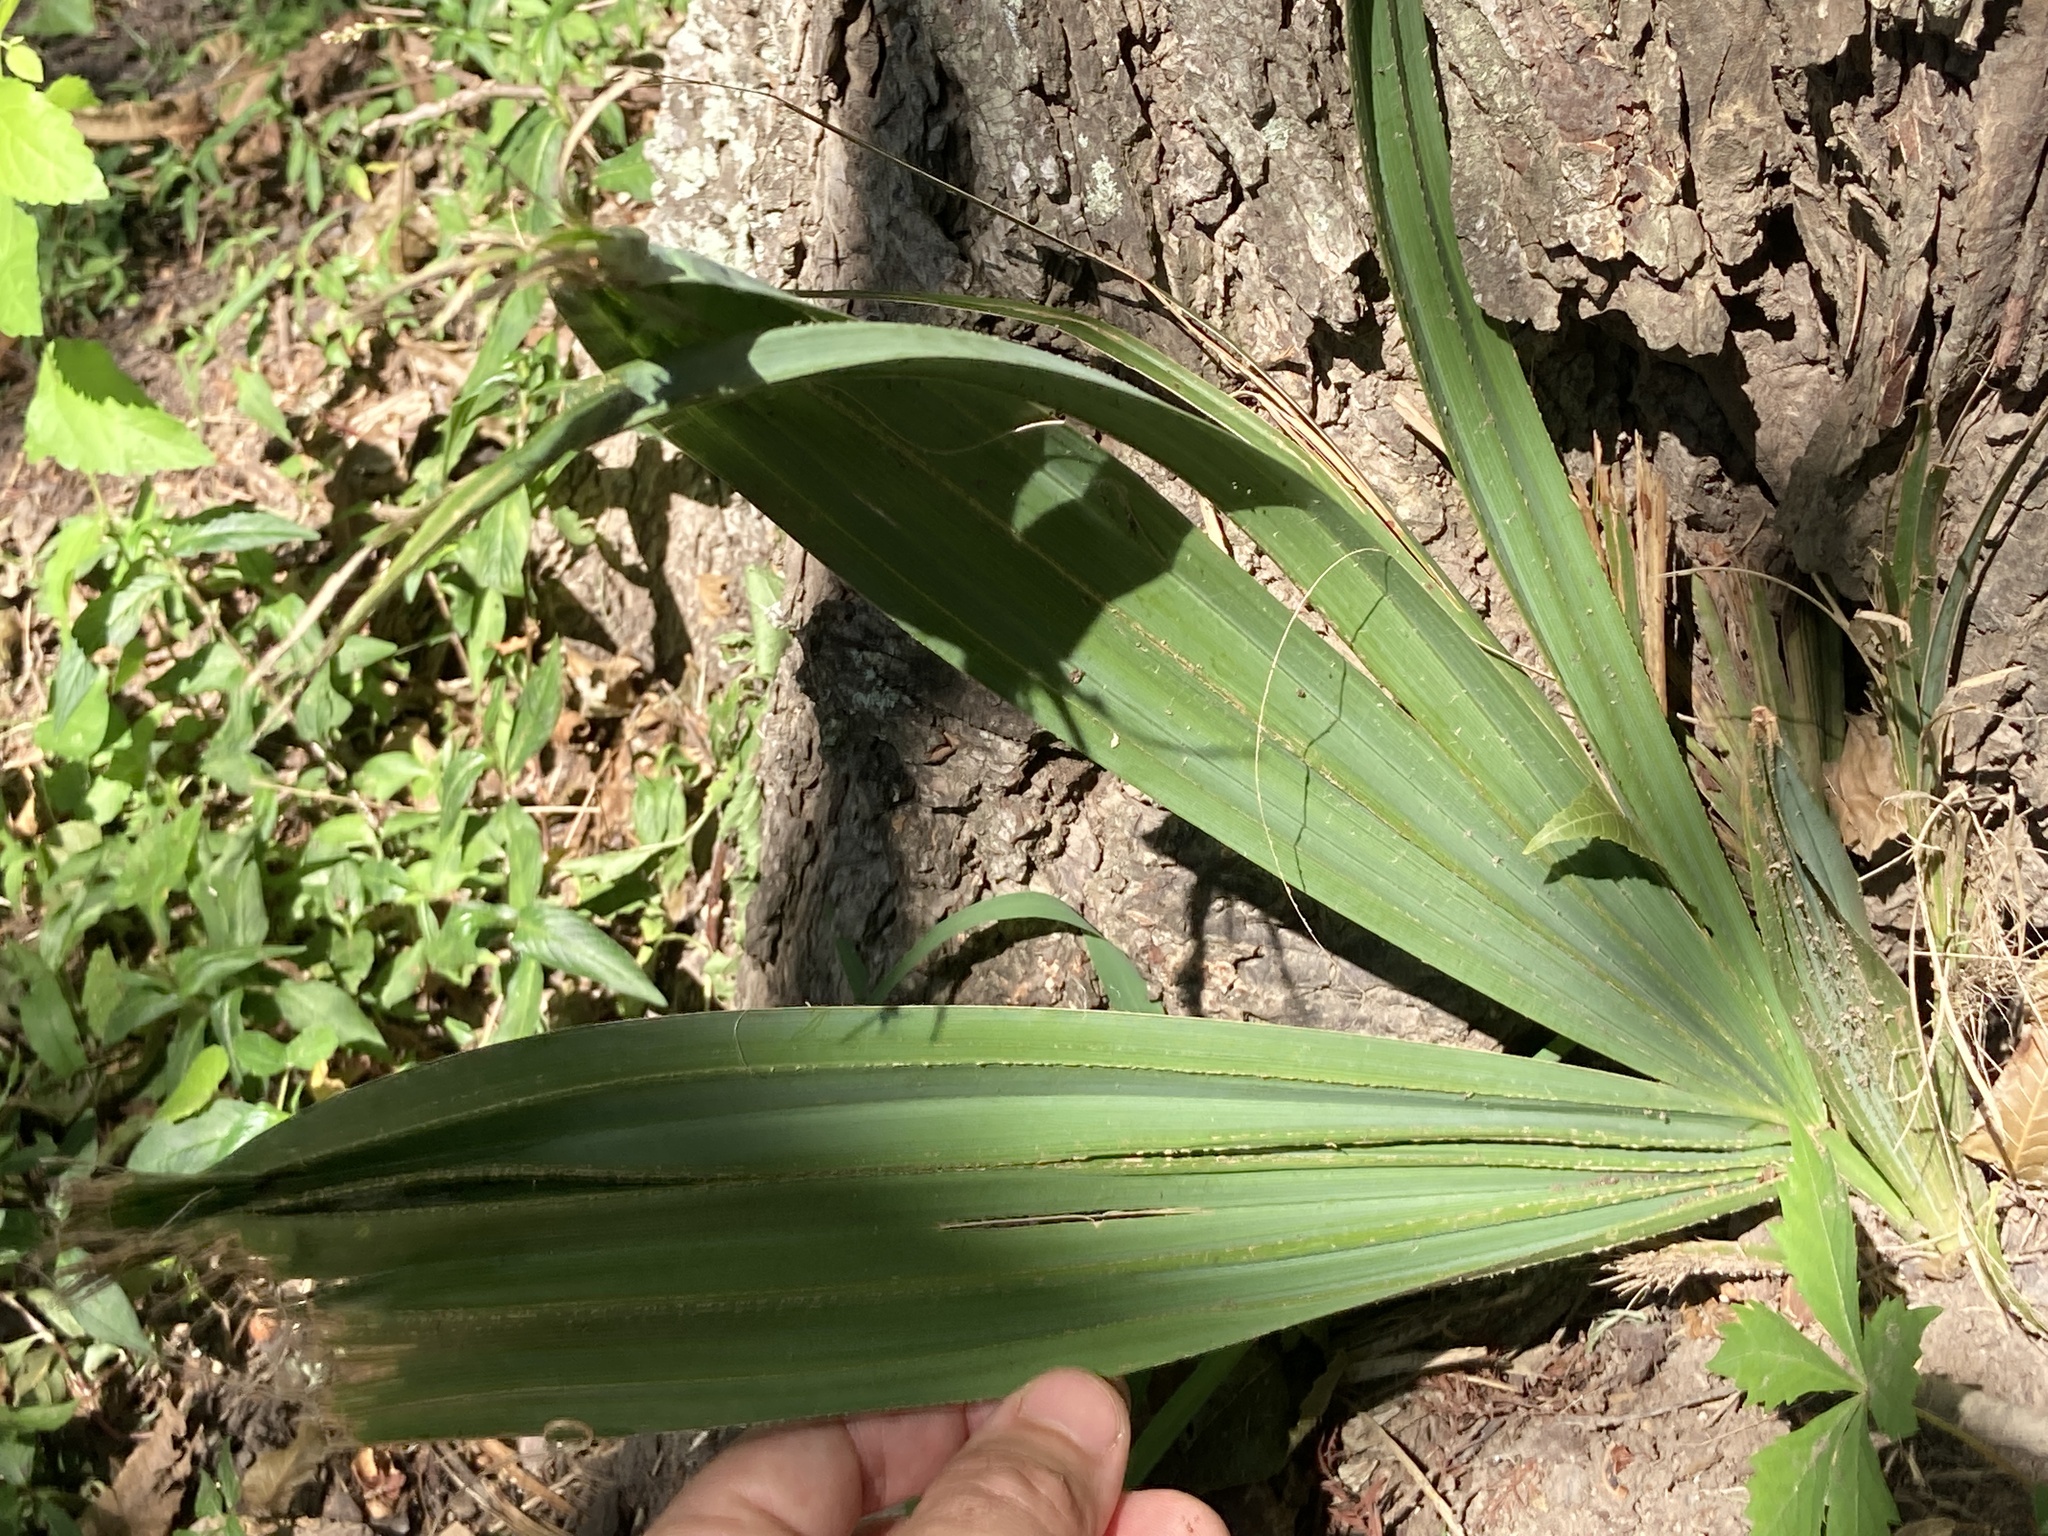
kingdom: Plantae
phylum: Tracheophyta
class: Liliopsida
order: Arecales
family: Arecaceae
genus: Sabal
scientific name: Sabal minor
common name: Dwarf palmetto
